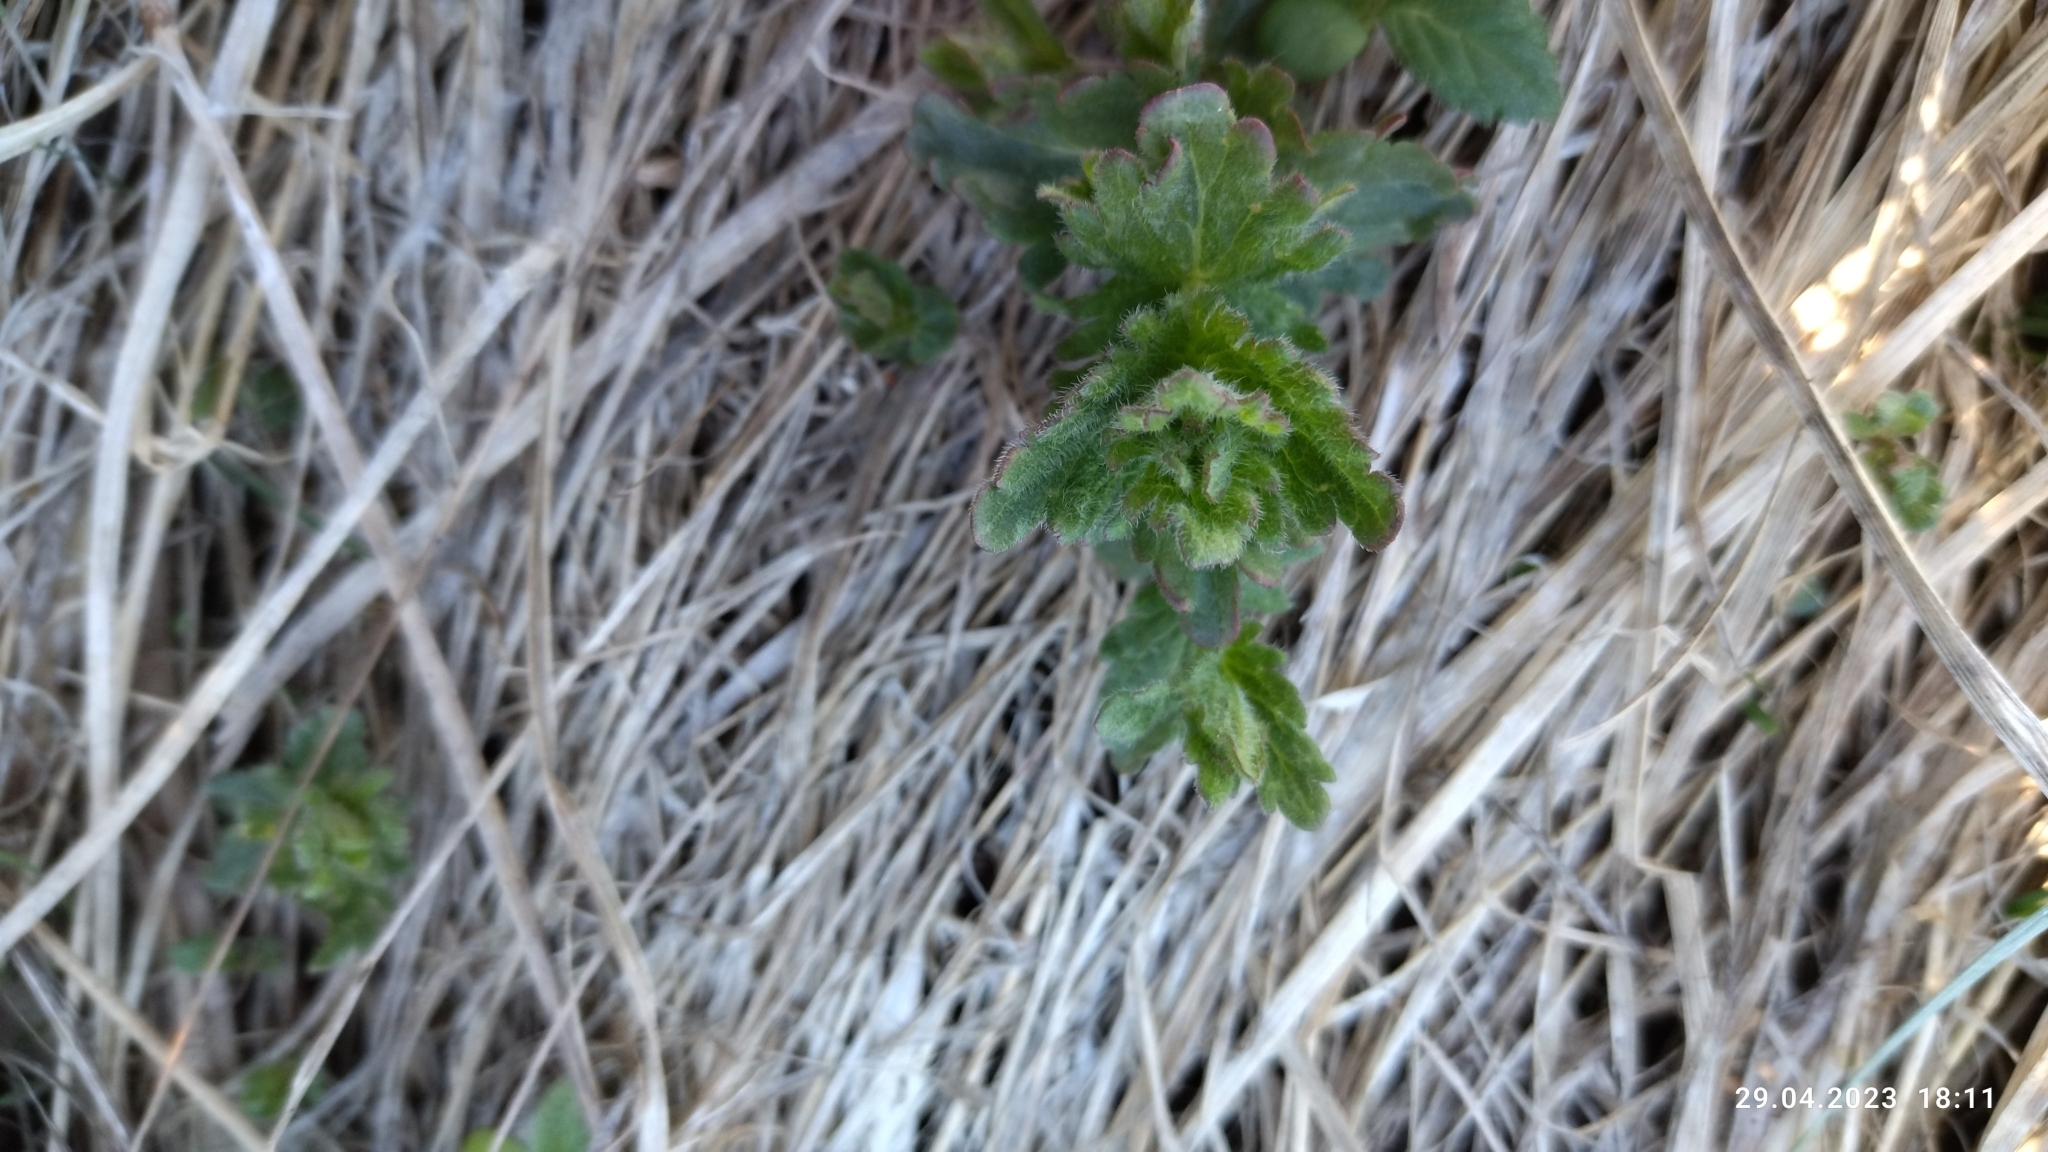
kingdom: Plantae
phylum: Tracheophyta
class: Magnoliopsida
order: Lamiales
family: Plantaginaceae
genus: Veronica
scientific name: Veronica chamaedrys
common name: Germander speedwell
